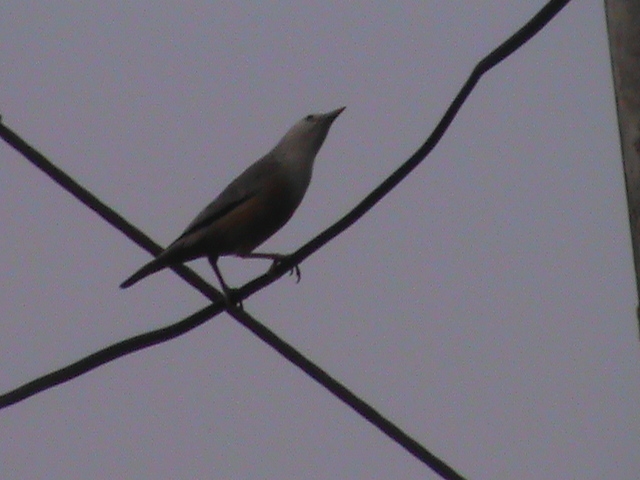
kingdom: Animalia
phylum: Chordata
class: Aves
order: Passeriformes
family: Sturnidae
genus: Sturnia
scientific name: Sturnia blythii
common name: Malabar starling
